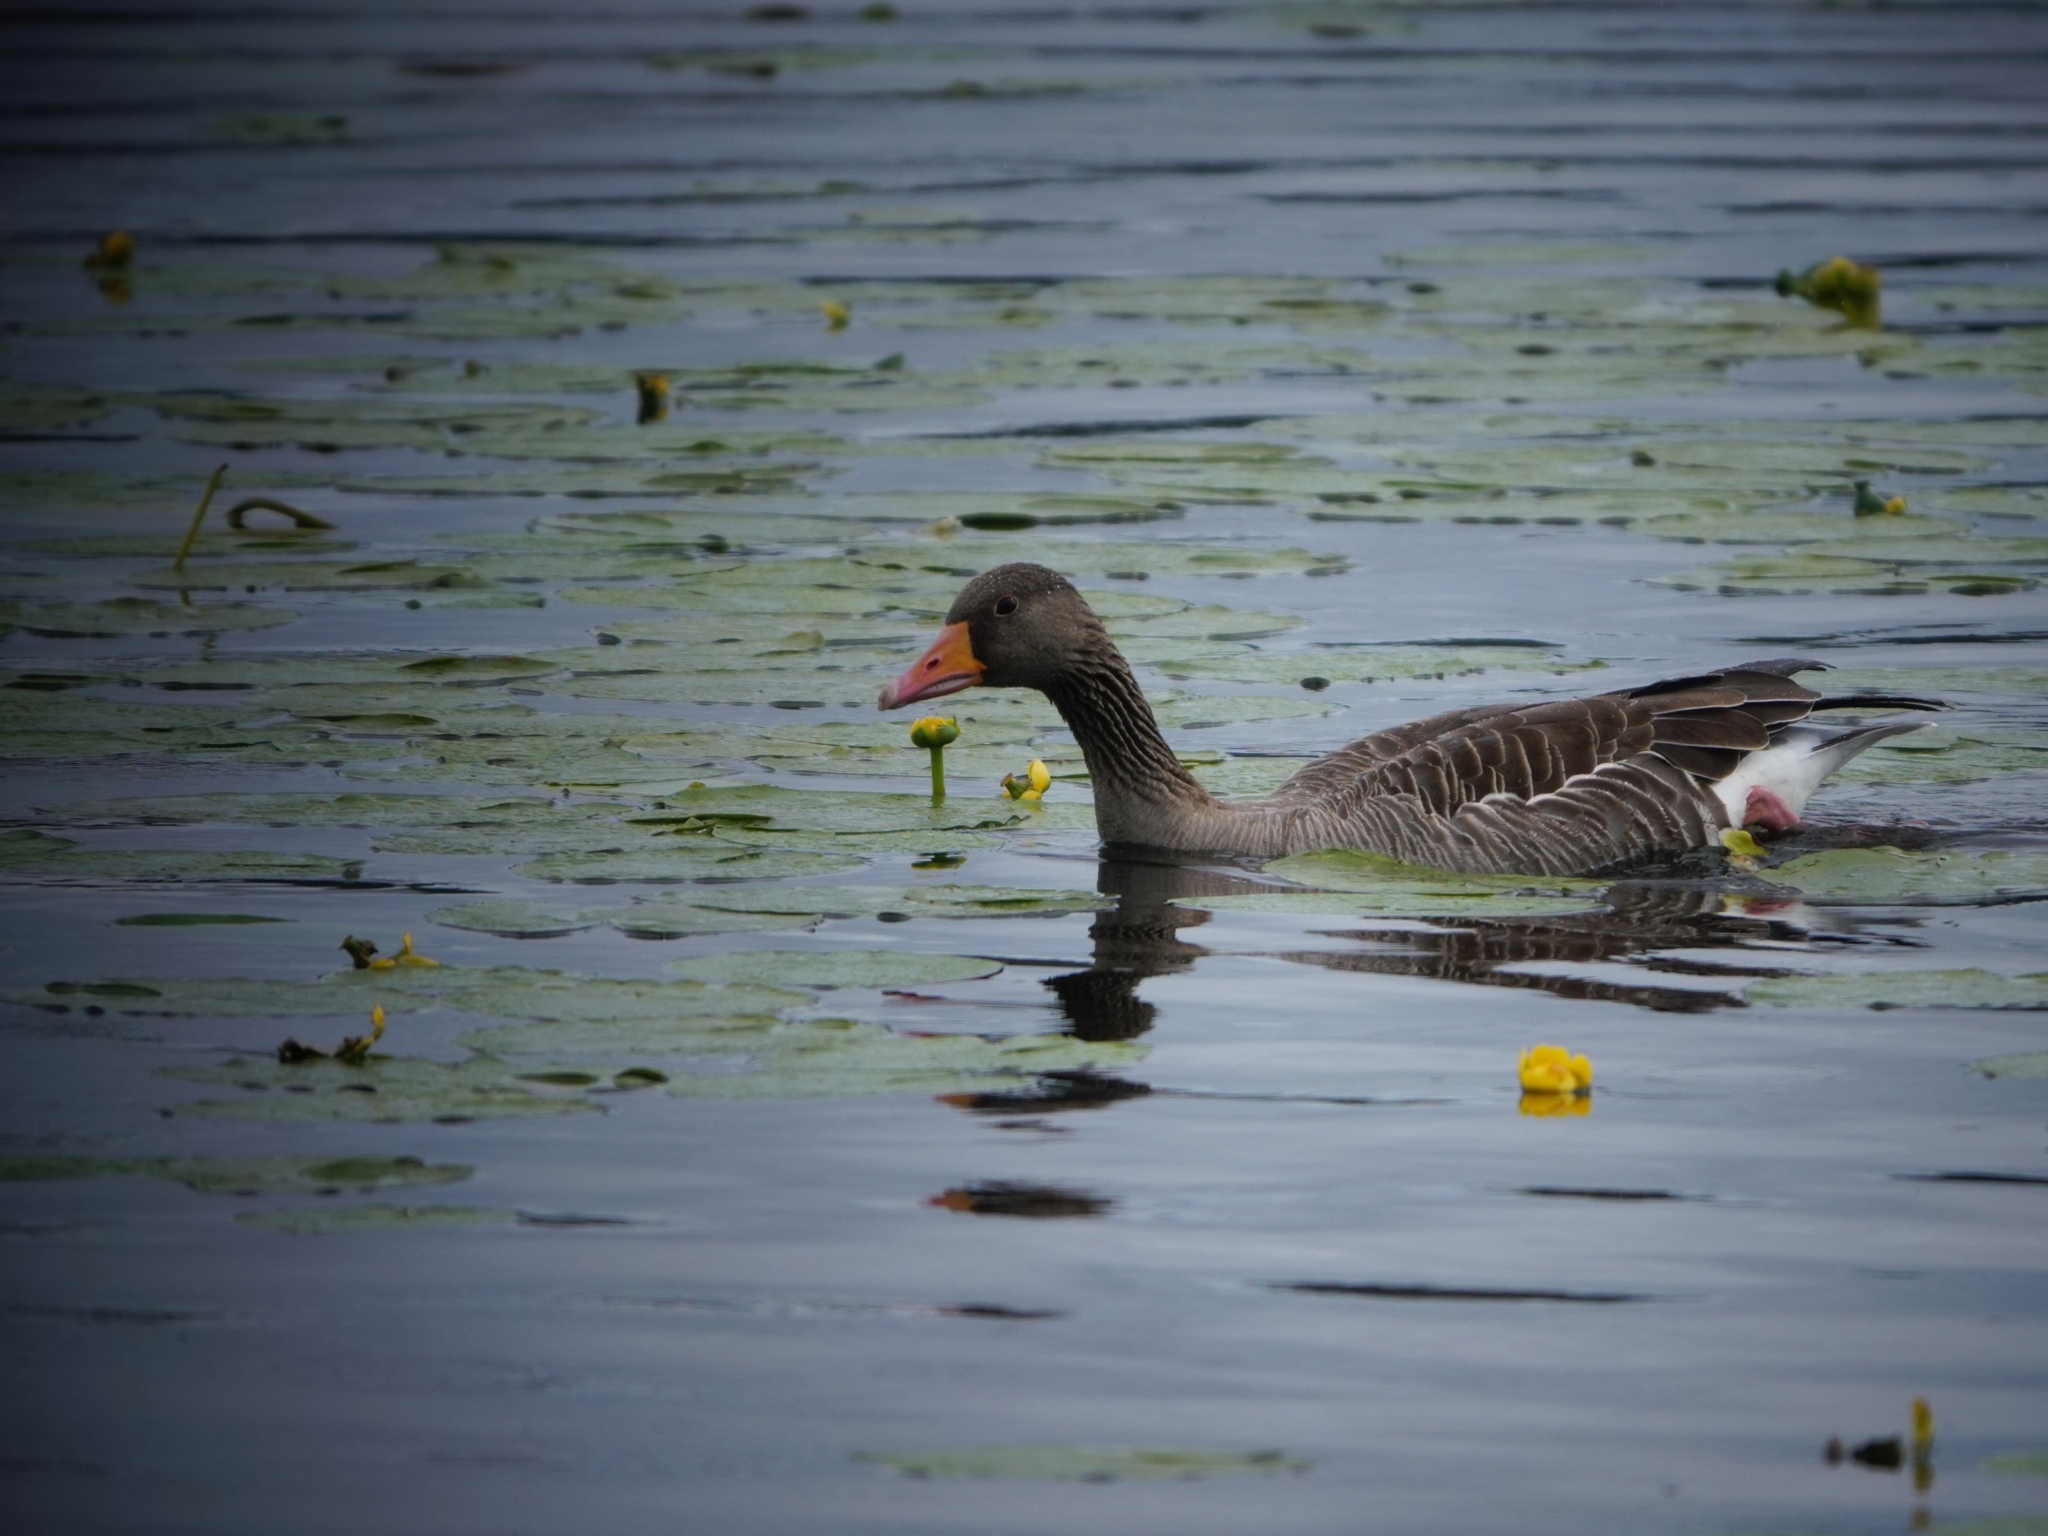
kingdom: Animalia
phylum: Chordata
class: Aves
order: Anseriformes
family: Anatidae
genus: Anser
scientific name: Anser anser
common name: Greylag goose
